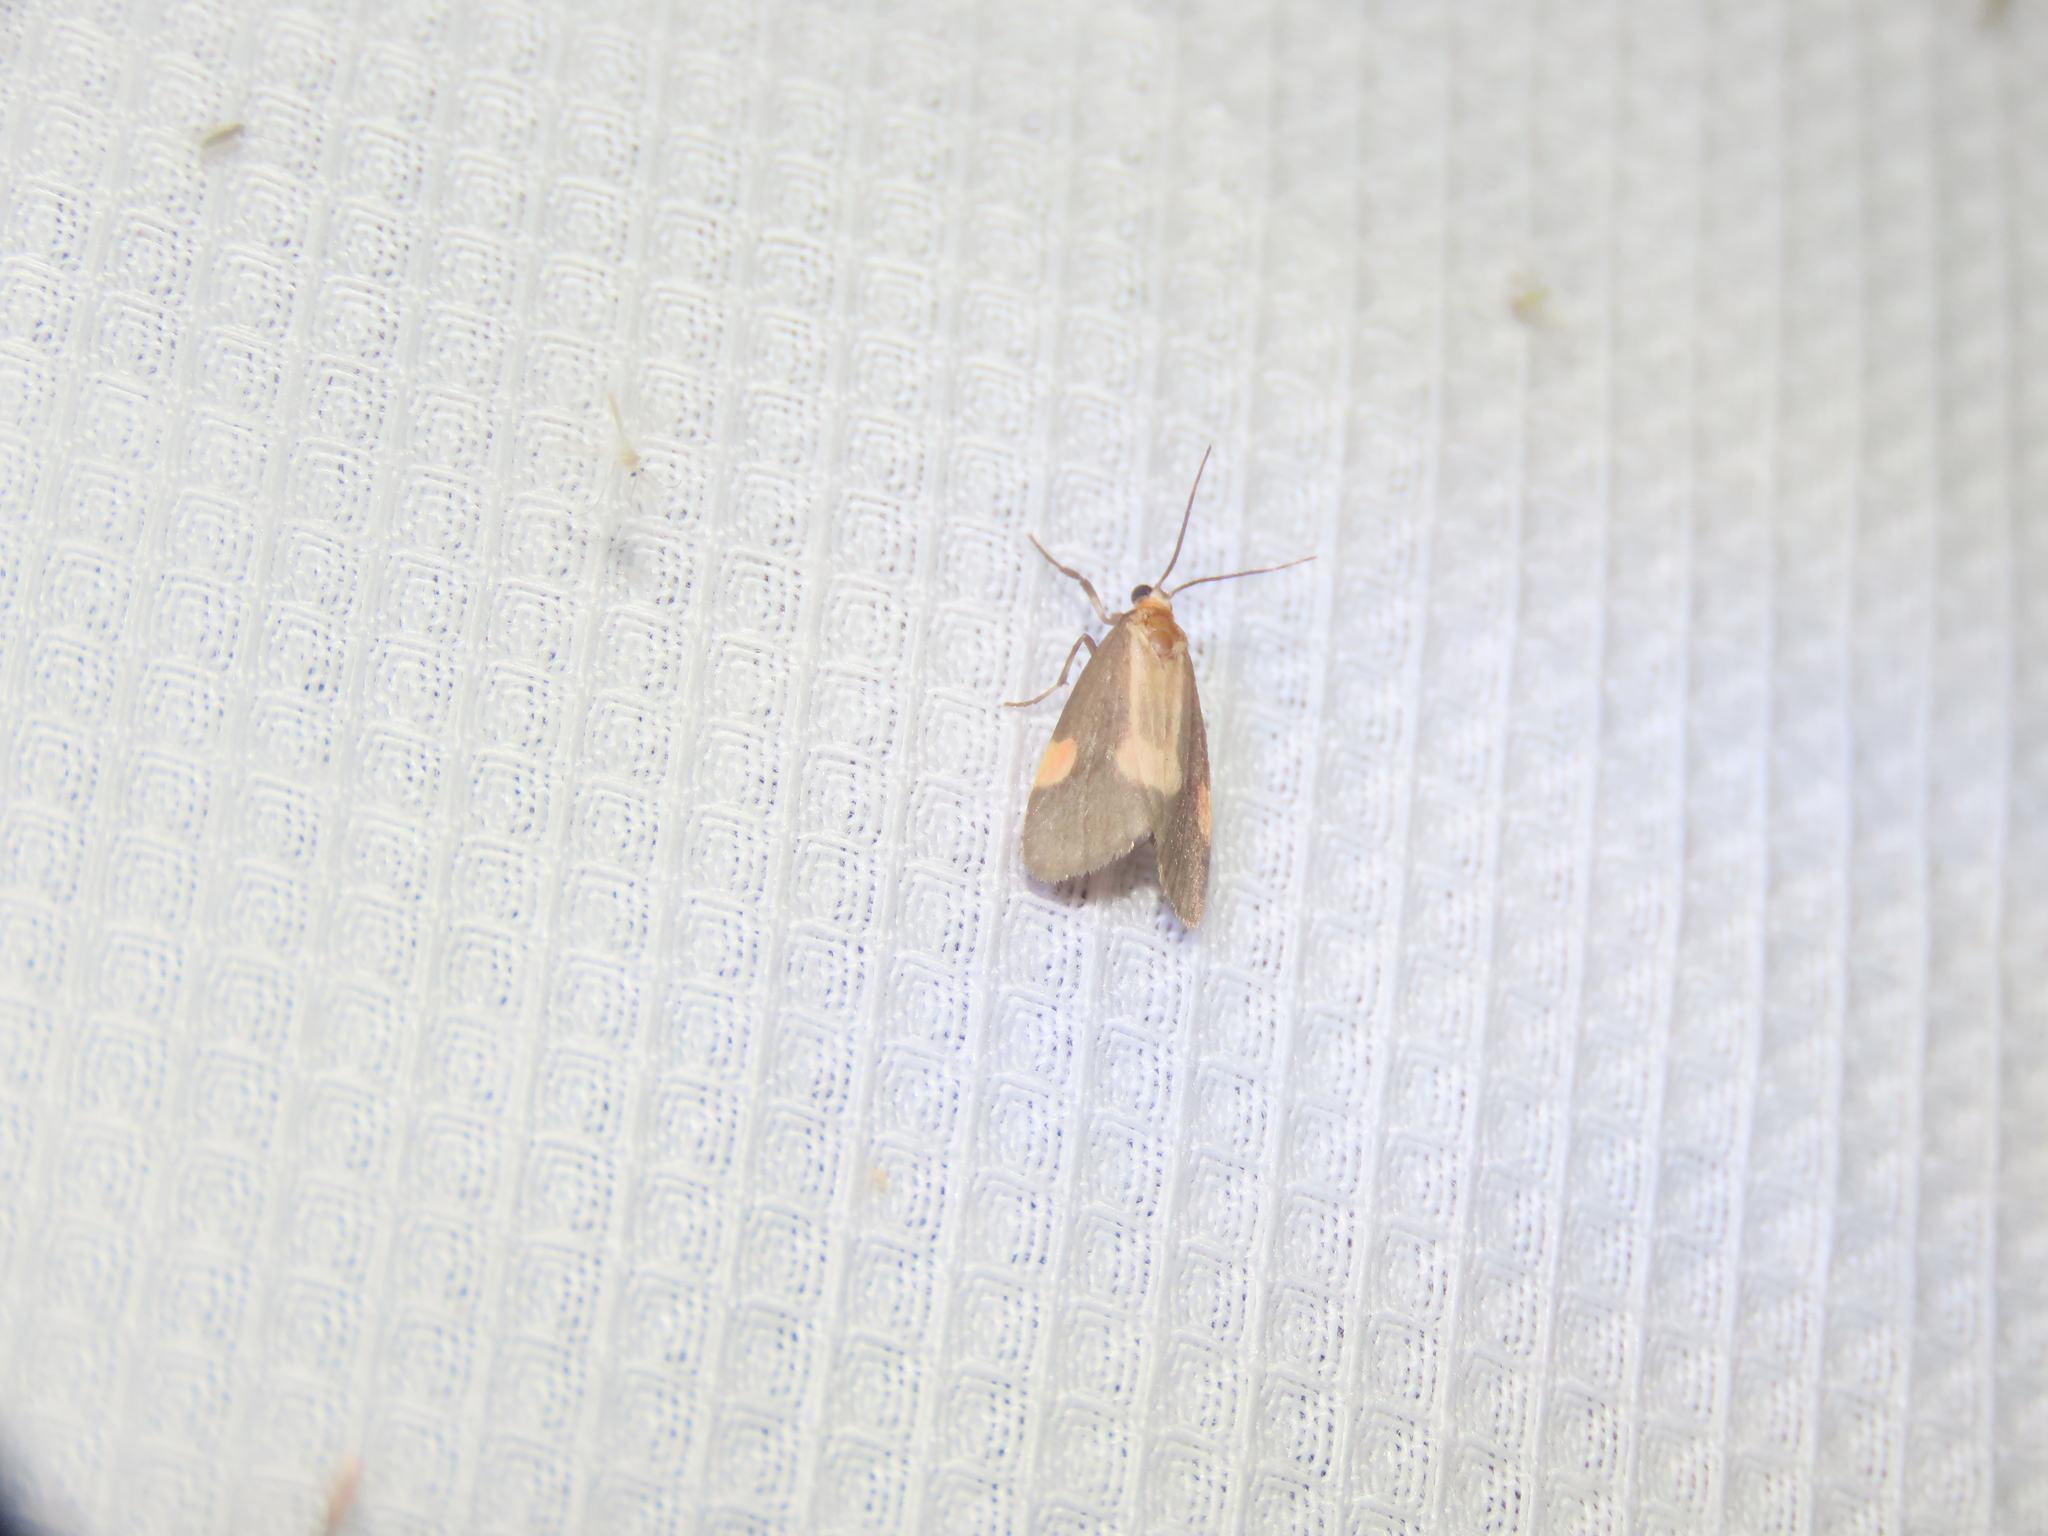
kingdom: Animalia
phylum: Arthropoda
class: Insecta
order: Lepidoptera
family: Erebidae
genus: Cisthene
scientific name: Cisthene packardii
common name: Packard's lichen moth
